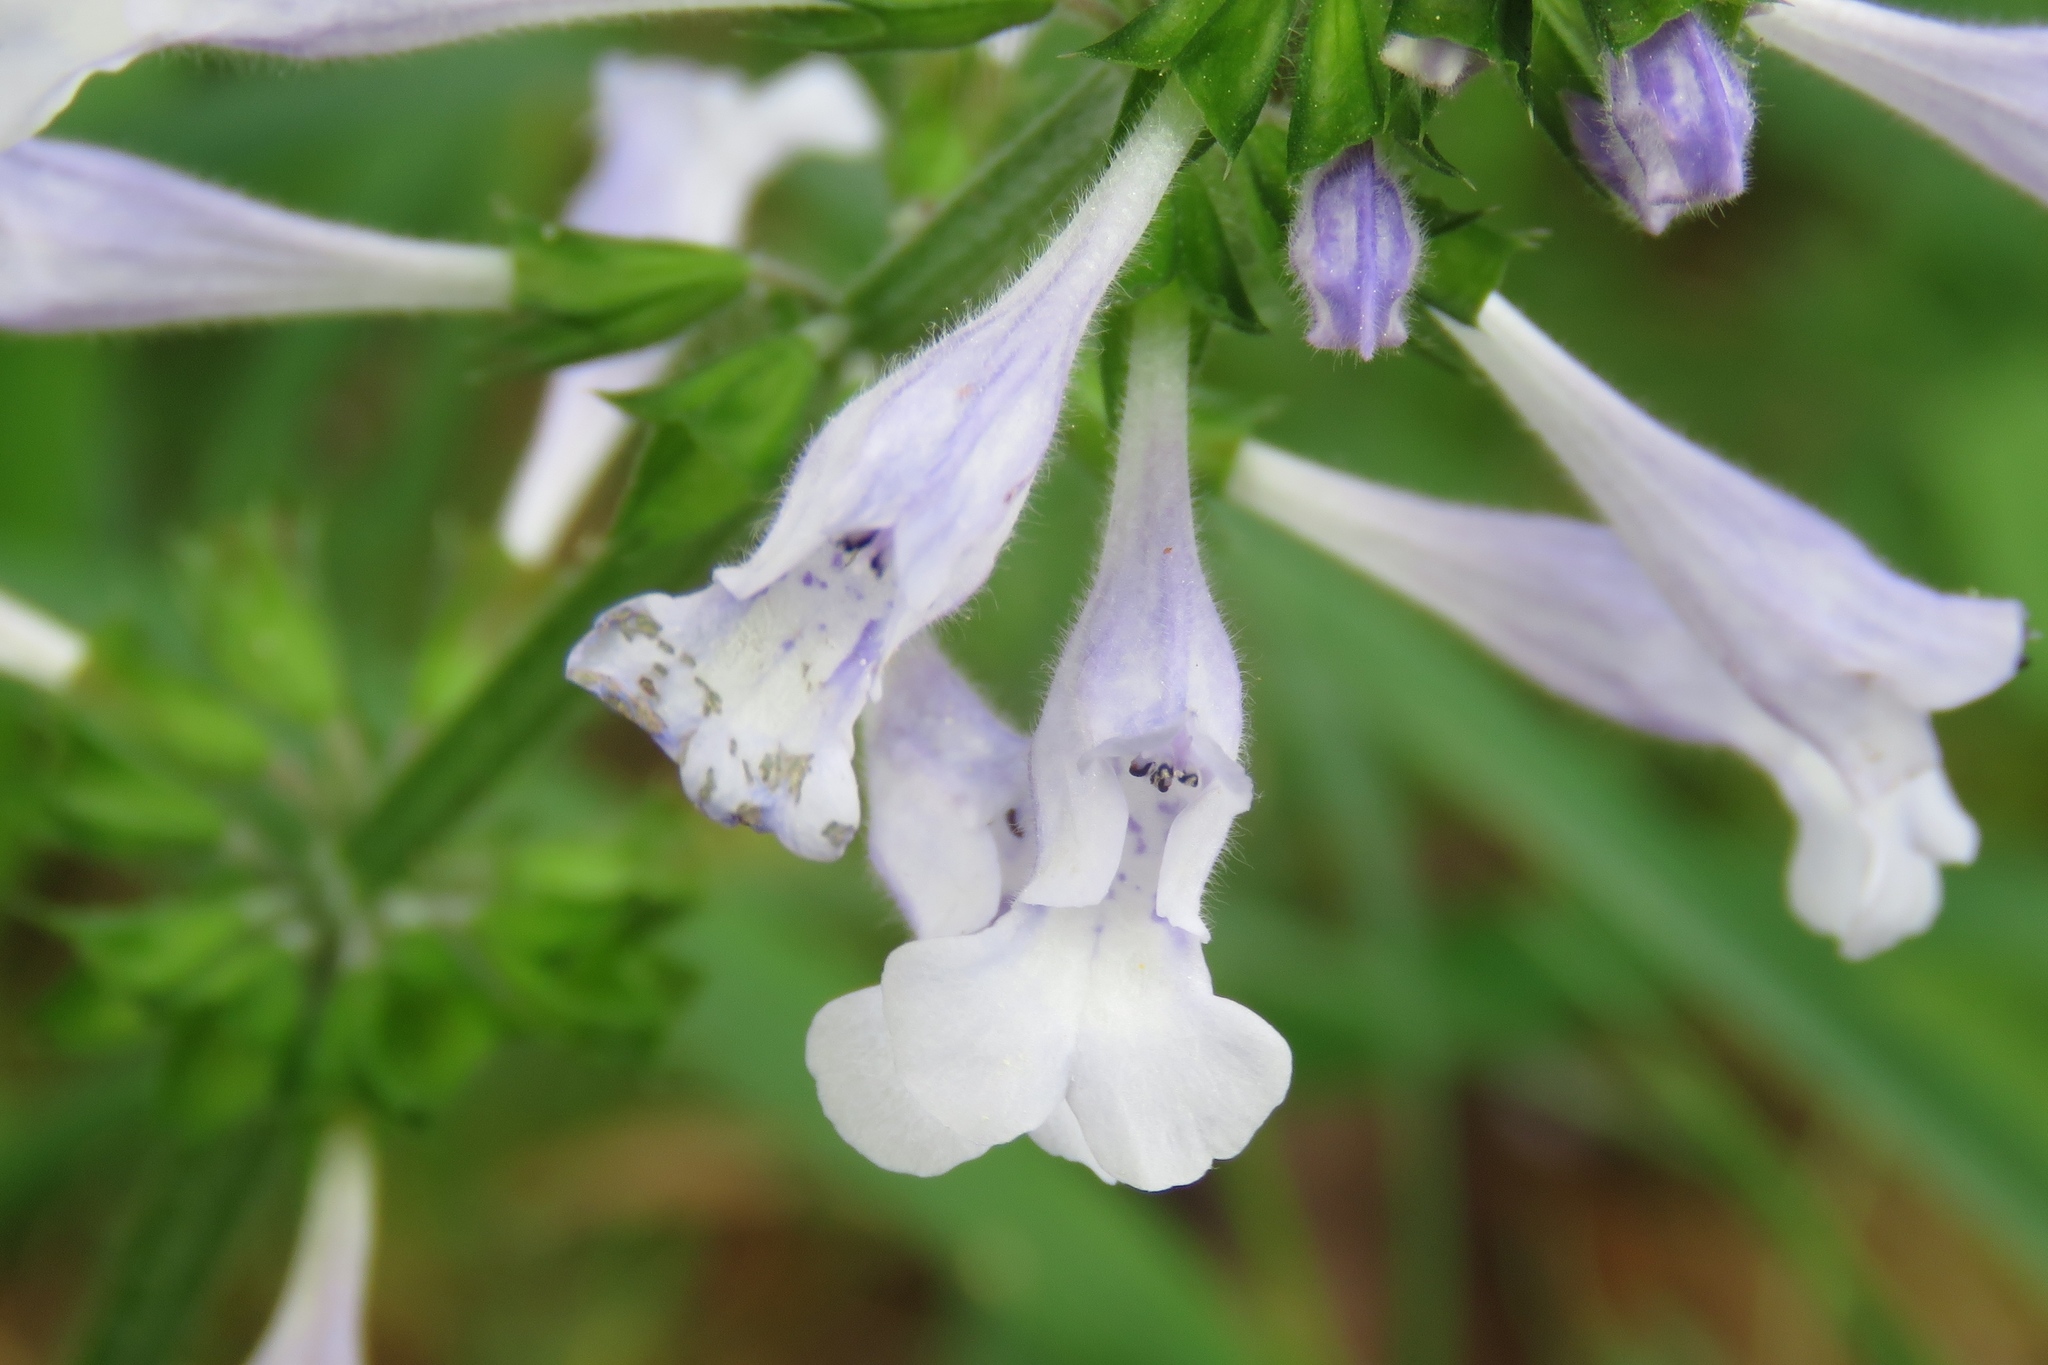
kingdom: Plantae
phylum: Tracheophyta
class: Magnoliopsida
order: Lamiales
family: Lamiaceae
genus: Salvia
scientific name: Salvia lyrata
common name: Cancerweed
